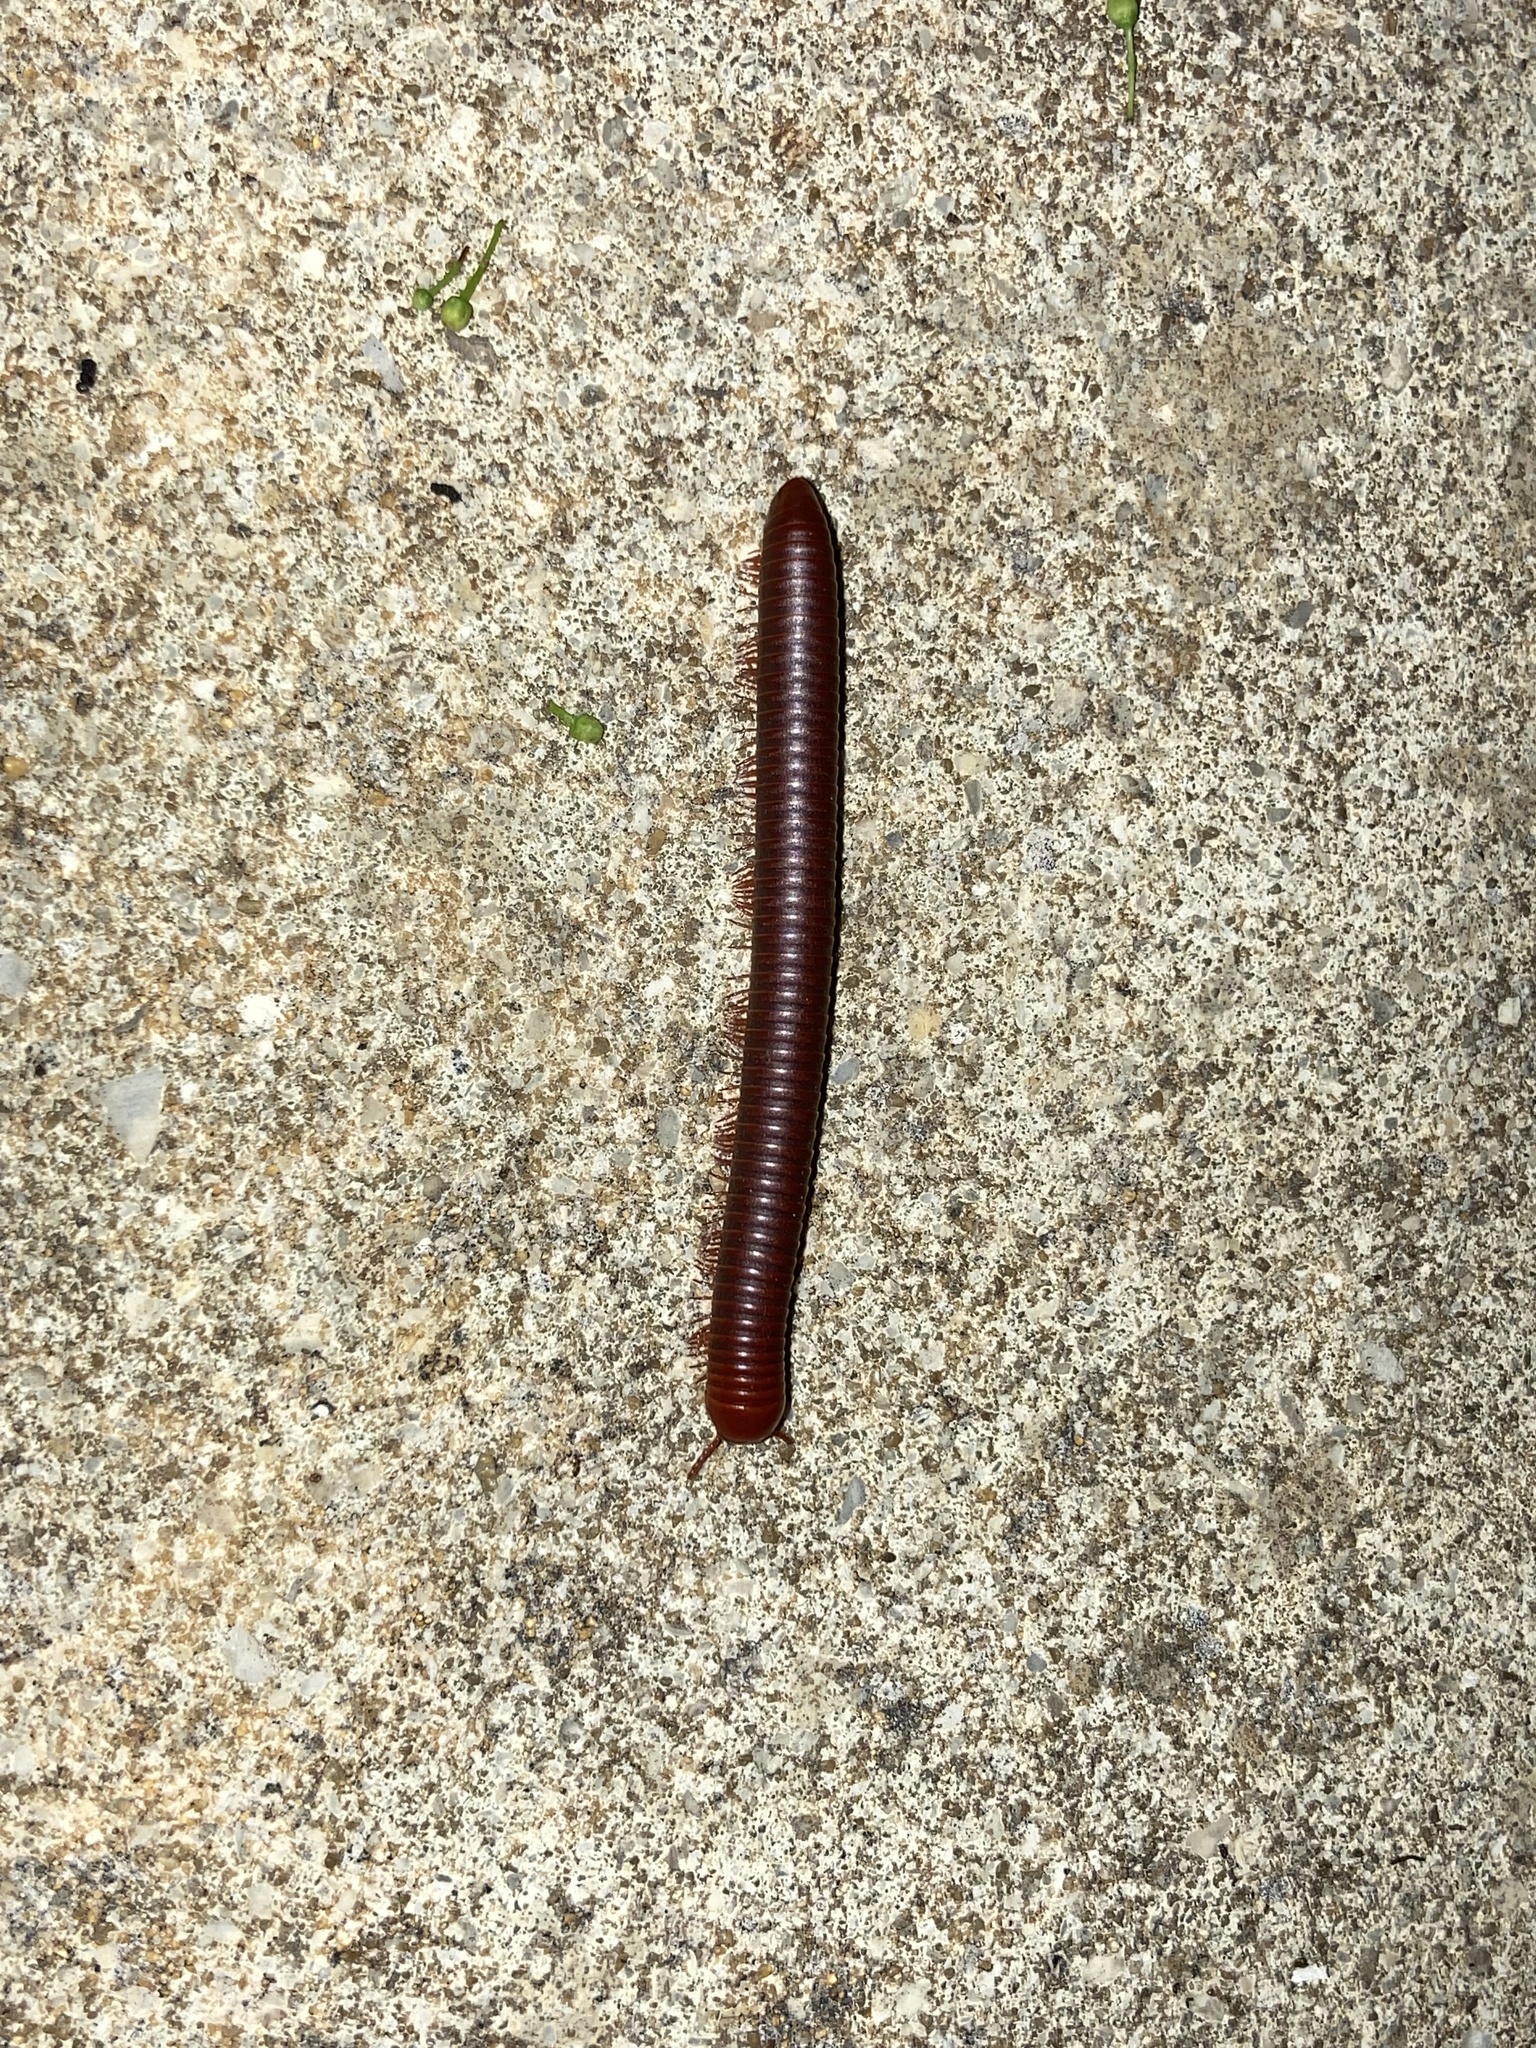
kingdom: Animalia
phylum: Arthropoda
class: Diplopoda
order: Spirobolida
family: Pachybolidae
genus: Trigoniulus
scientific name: Trigoniulus corallinus
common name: Millipede
